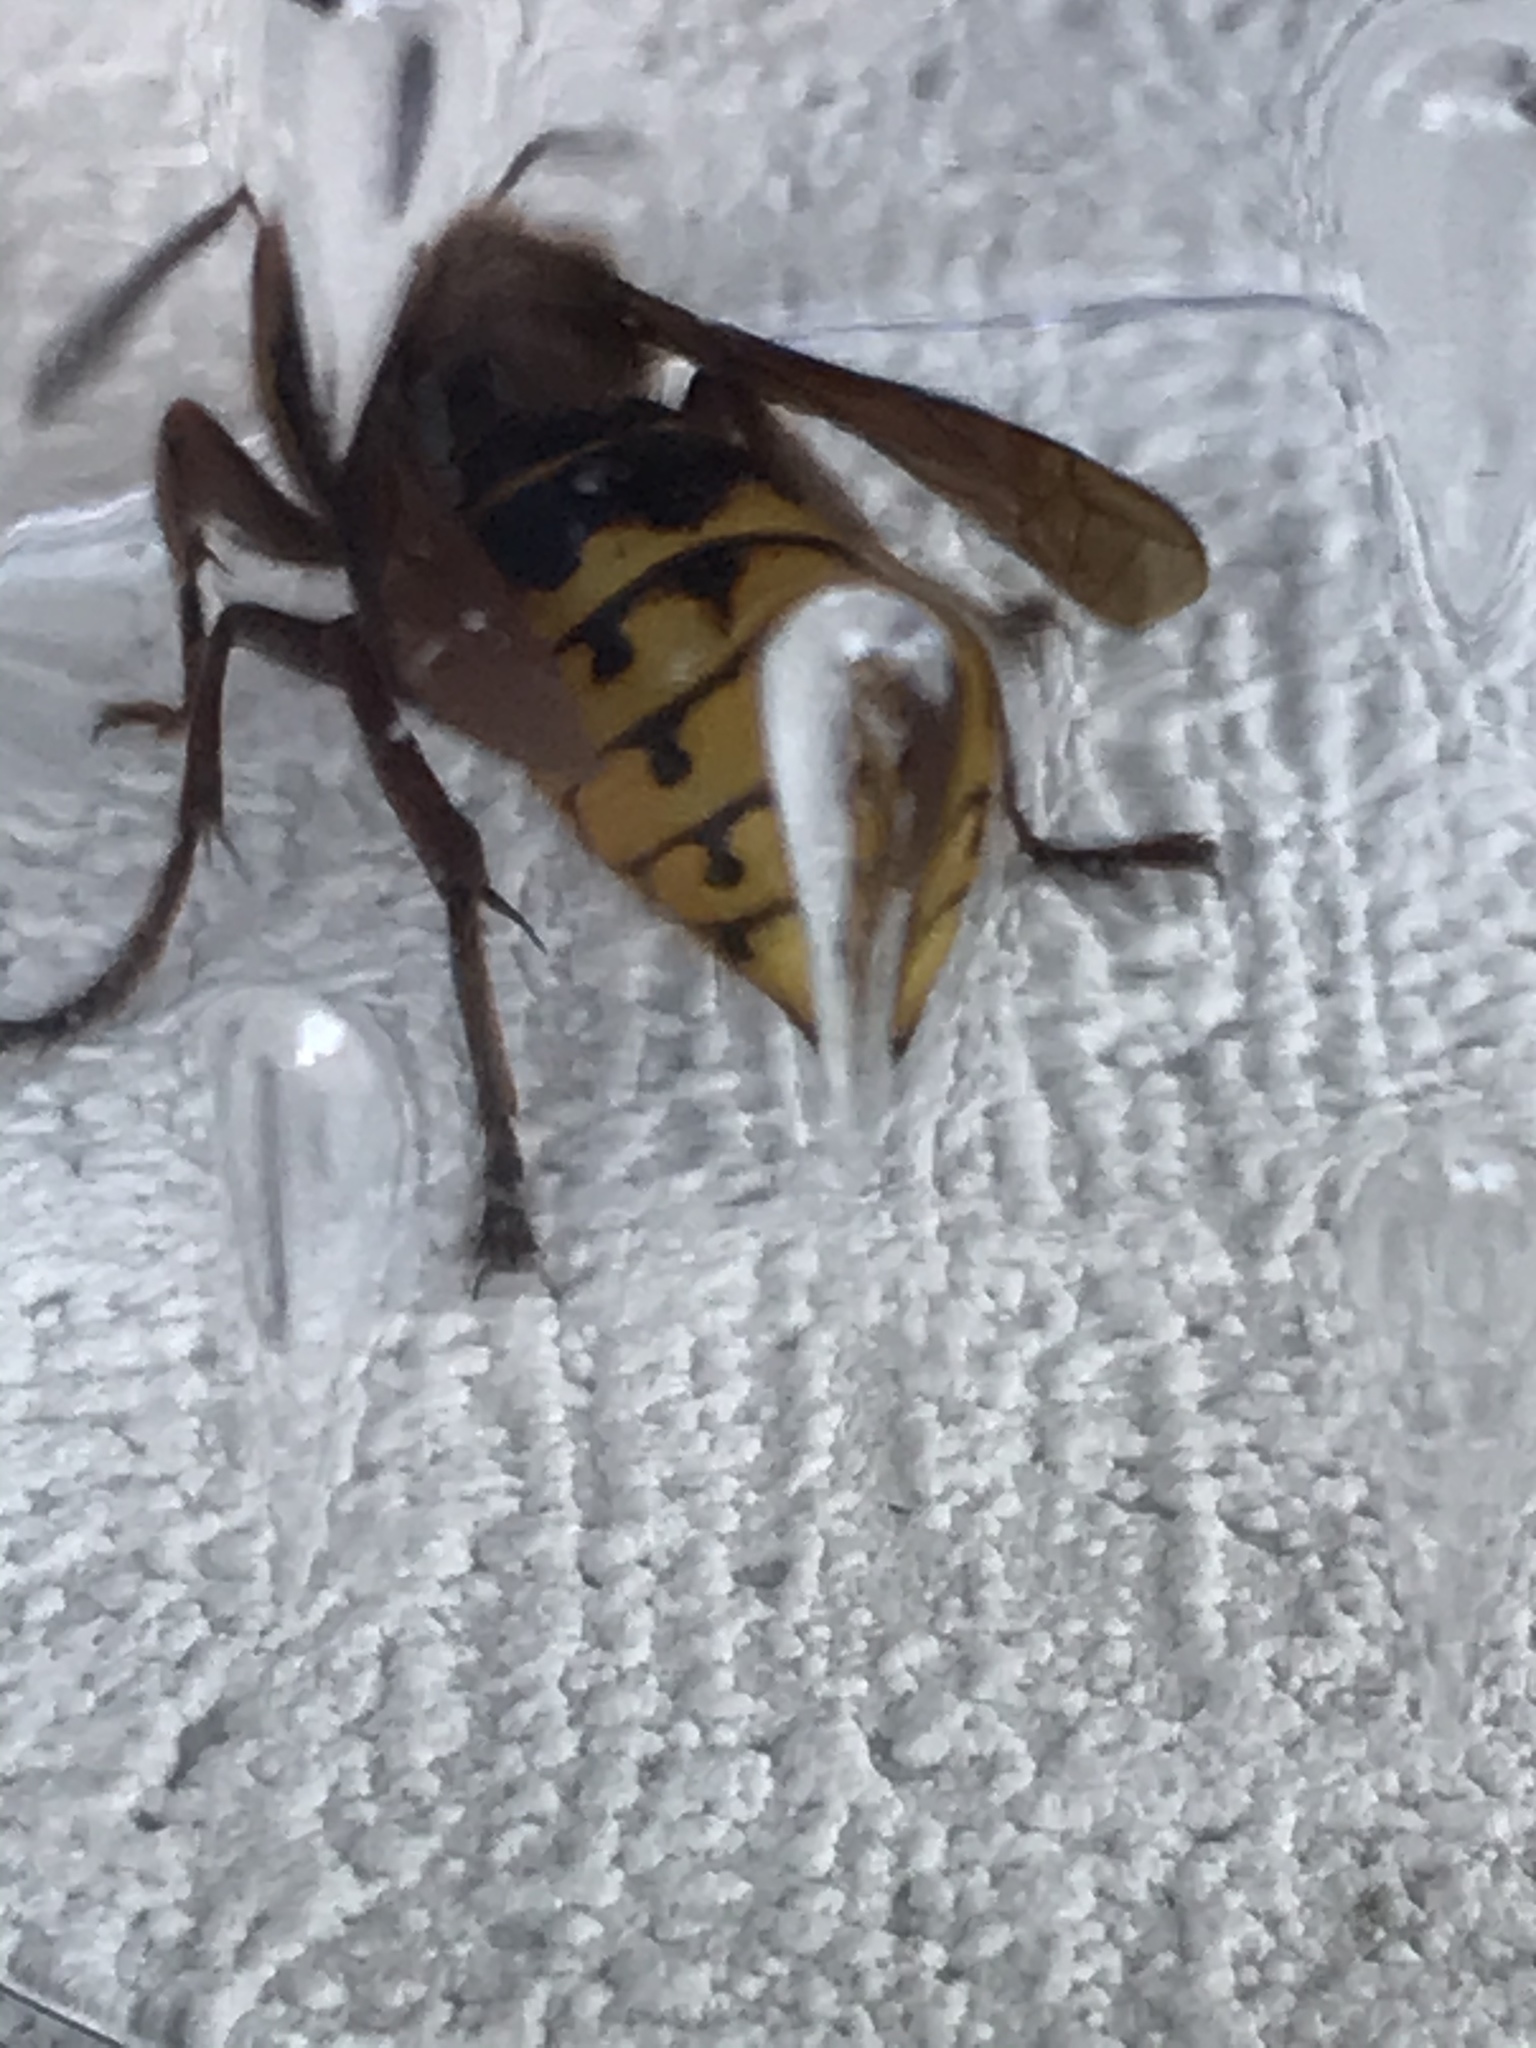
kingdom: Animalia
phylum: Arthropoda
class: Insecta
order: Hymenoptera
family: Vespidae
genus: Vespa
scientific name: Vespa crabro
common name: Hornet
